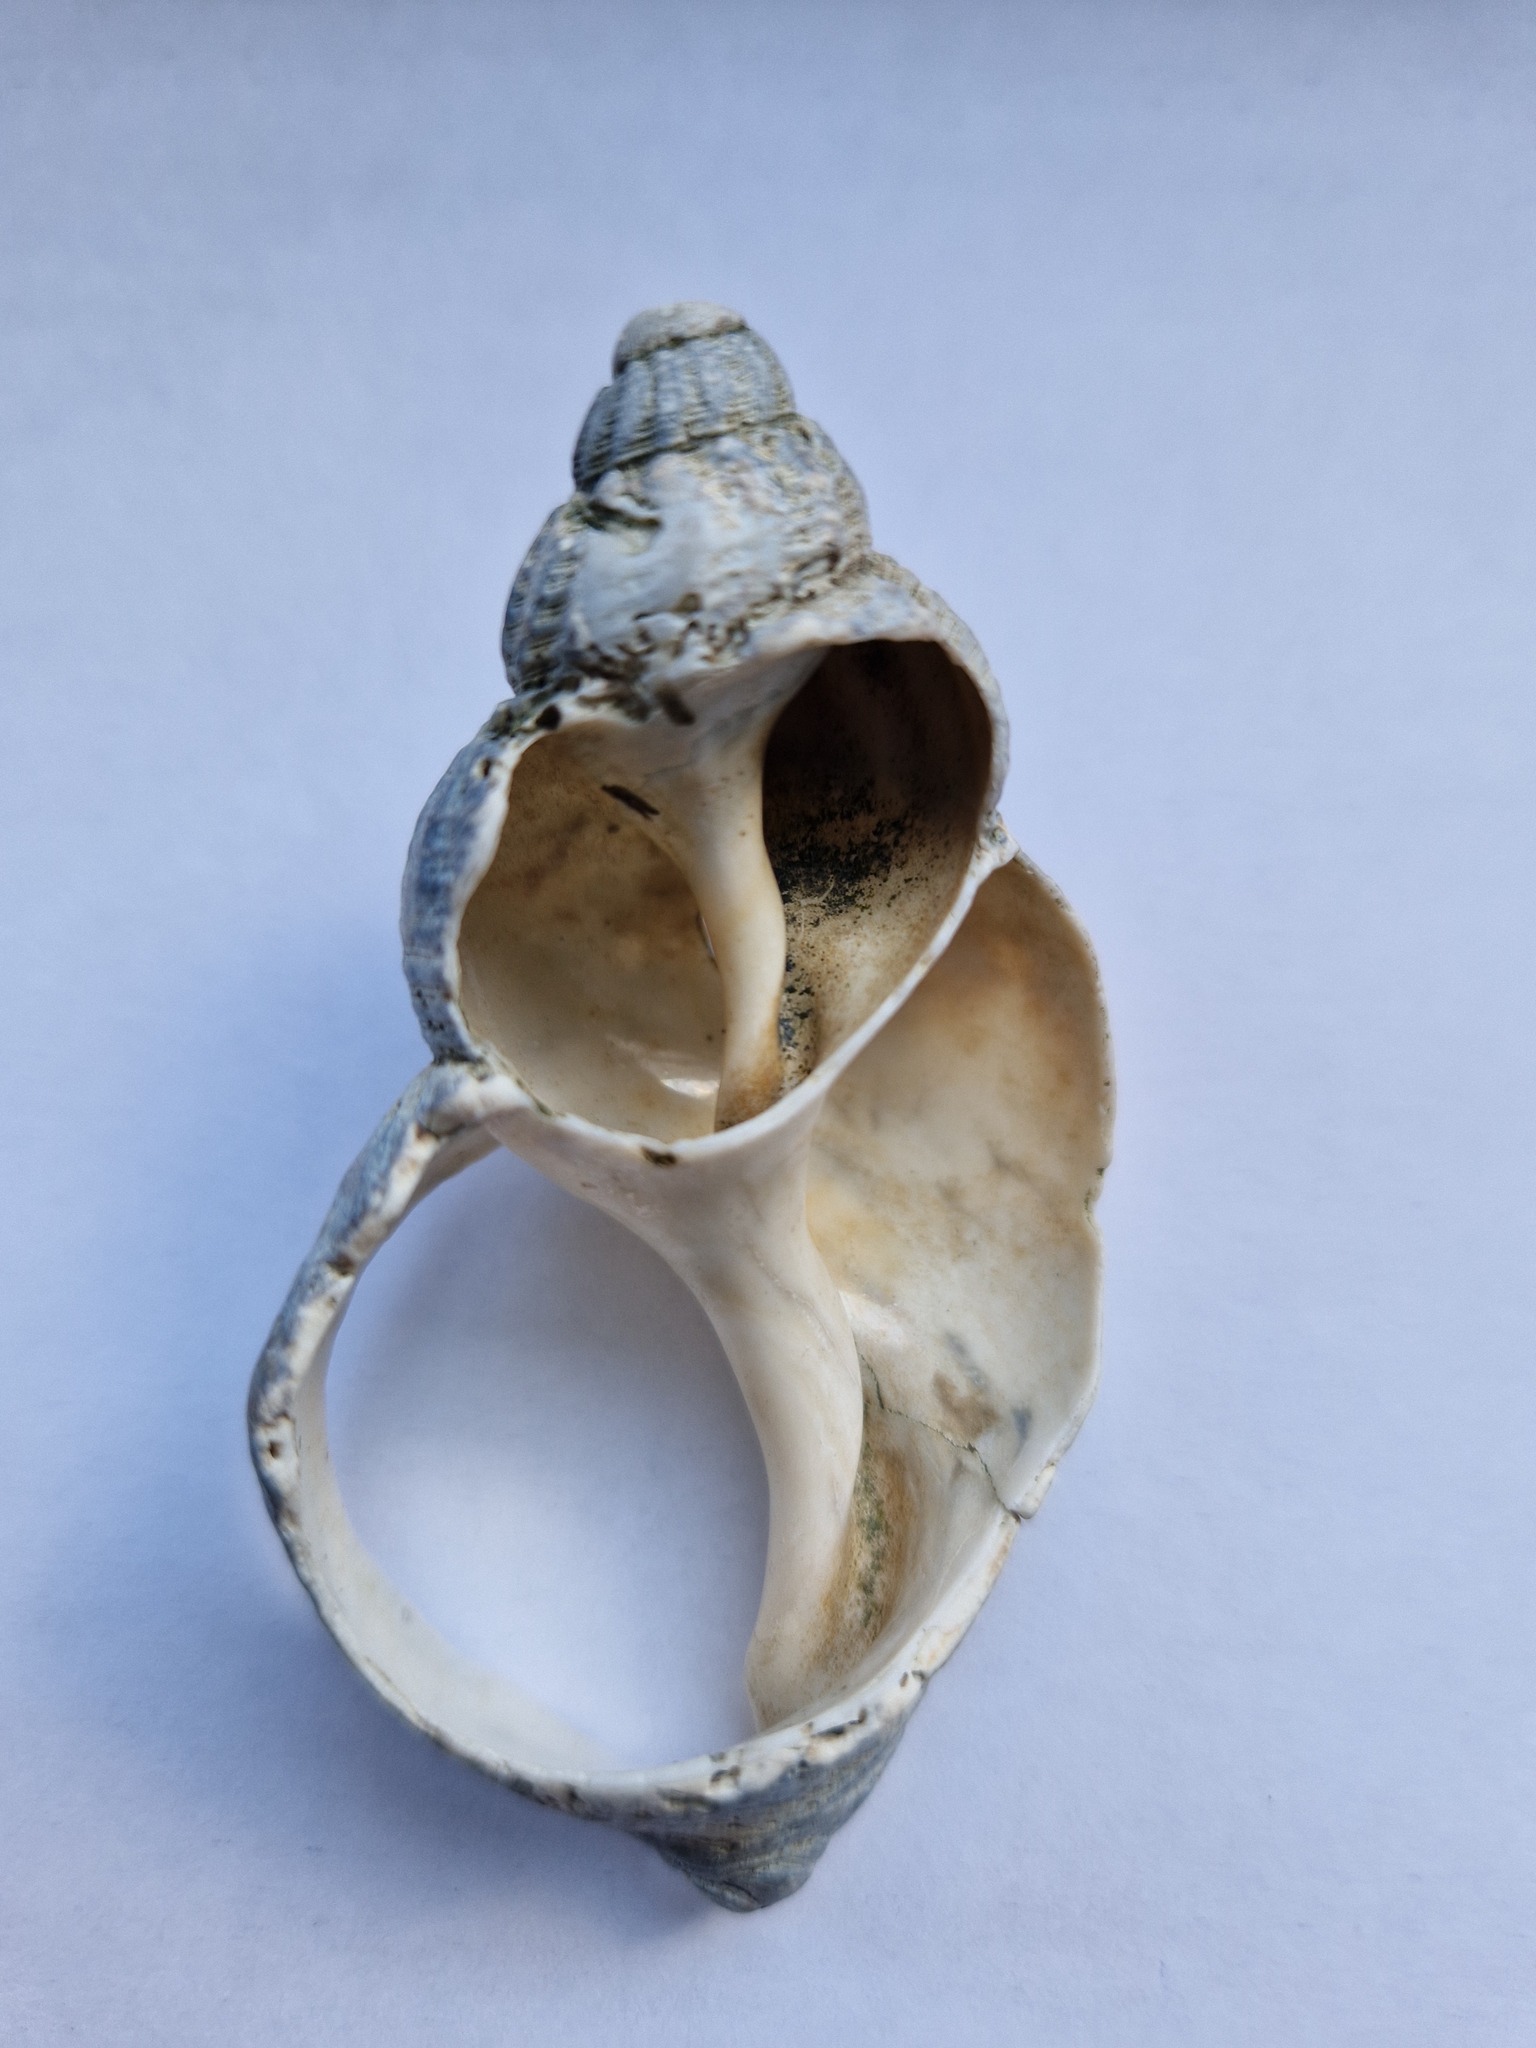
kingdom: Animalia
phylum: Mollusca
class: Gastropoda
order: Neogastropoda
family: Buccinidae
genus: Buccinum
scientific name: Buccinum undatum
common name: Common whelk
